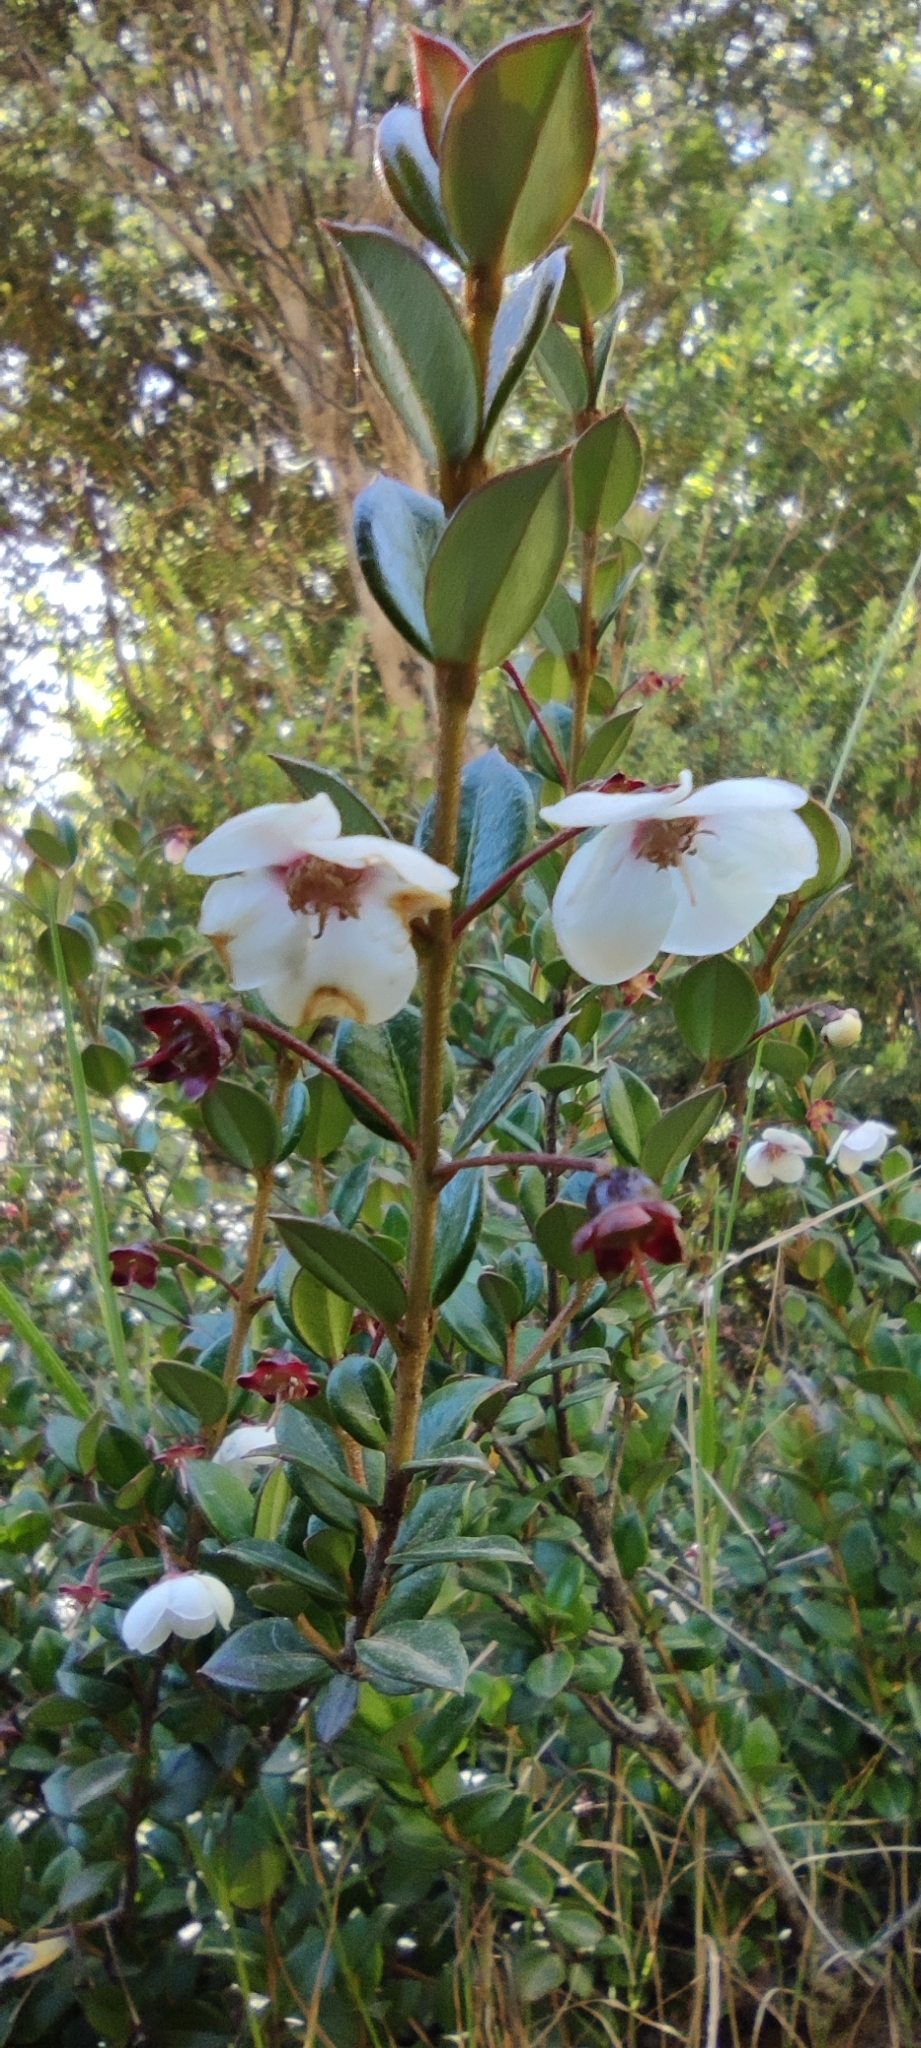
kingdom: Plantae
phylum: Tracheophyta
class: Magnoliopsida
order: Myrtales
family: Myrtaceae
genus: Ugni
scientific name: Ugni candollei
